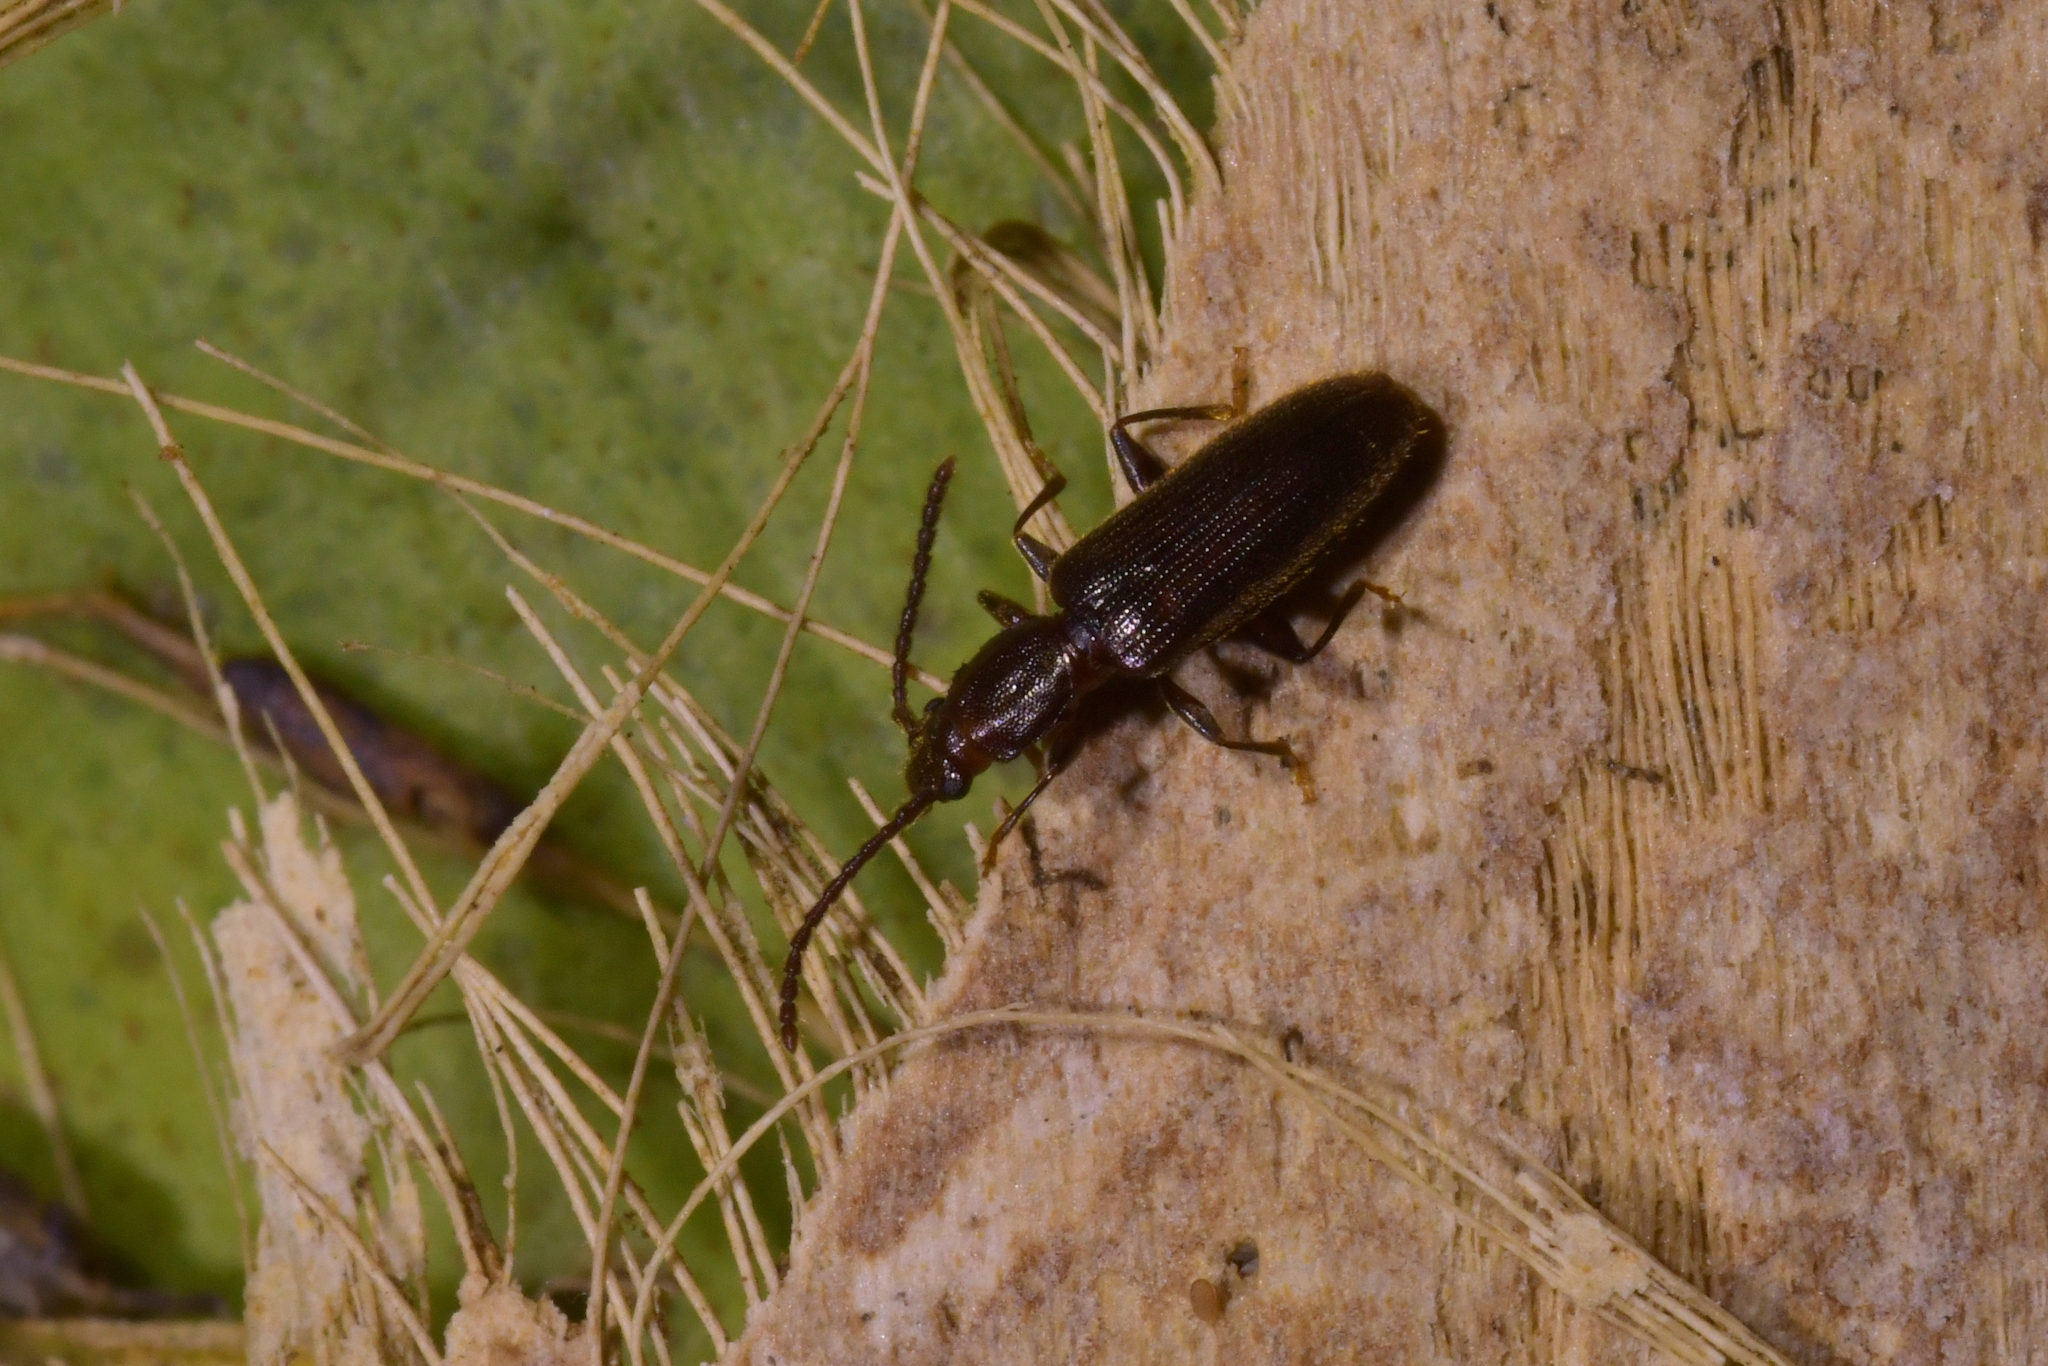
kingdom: Animalia
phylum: Arthropoda
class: Insecta
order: Coleoptera
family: Silvanidae
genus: Cryptamorpha
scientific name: Cryptamorpha brevicornis
